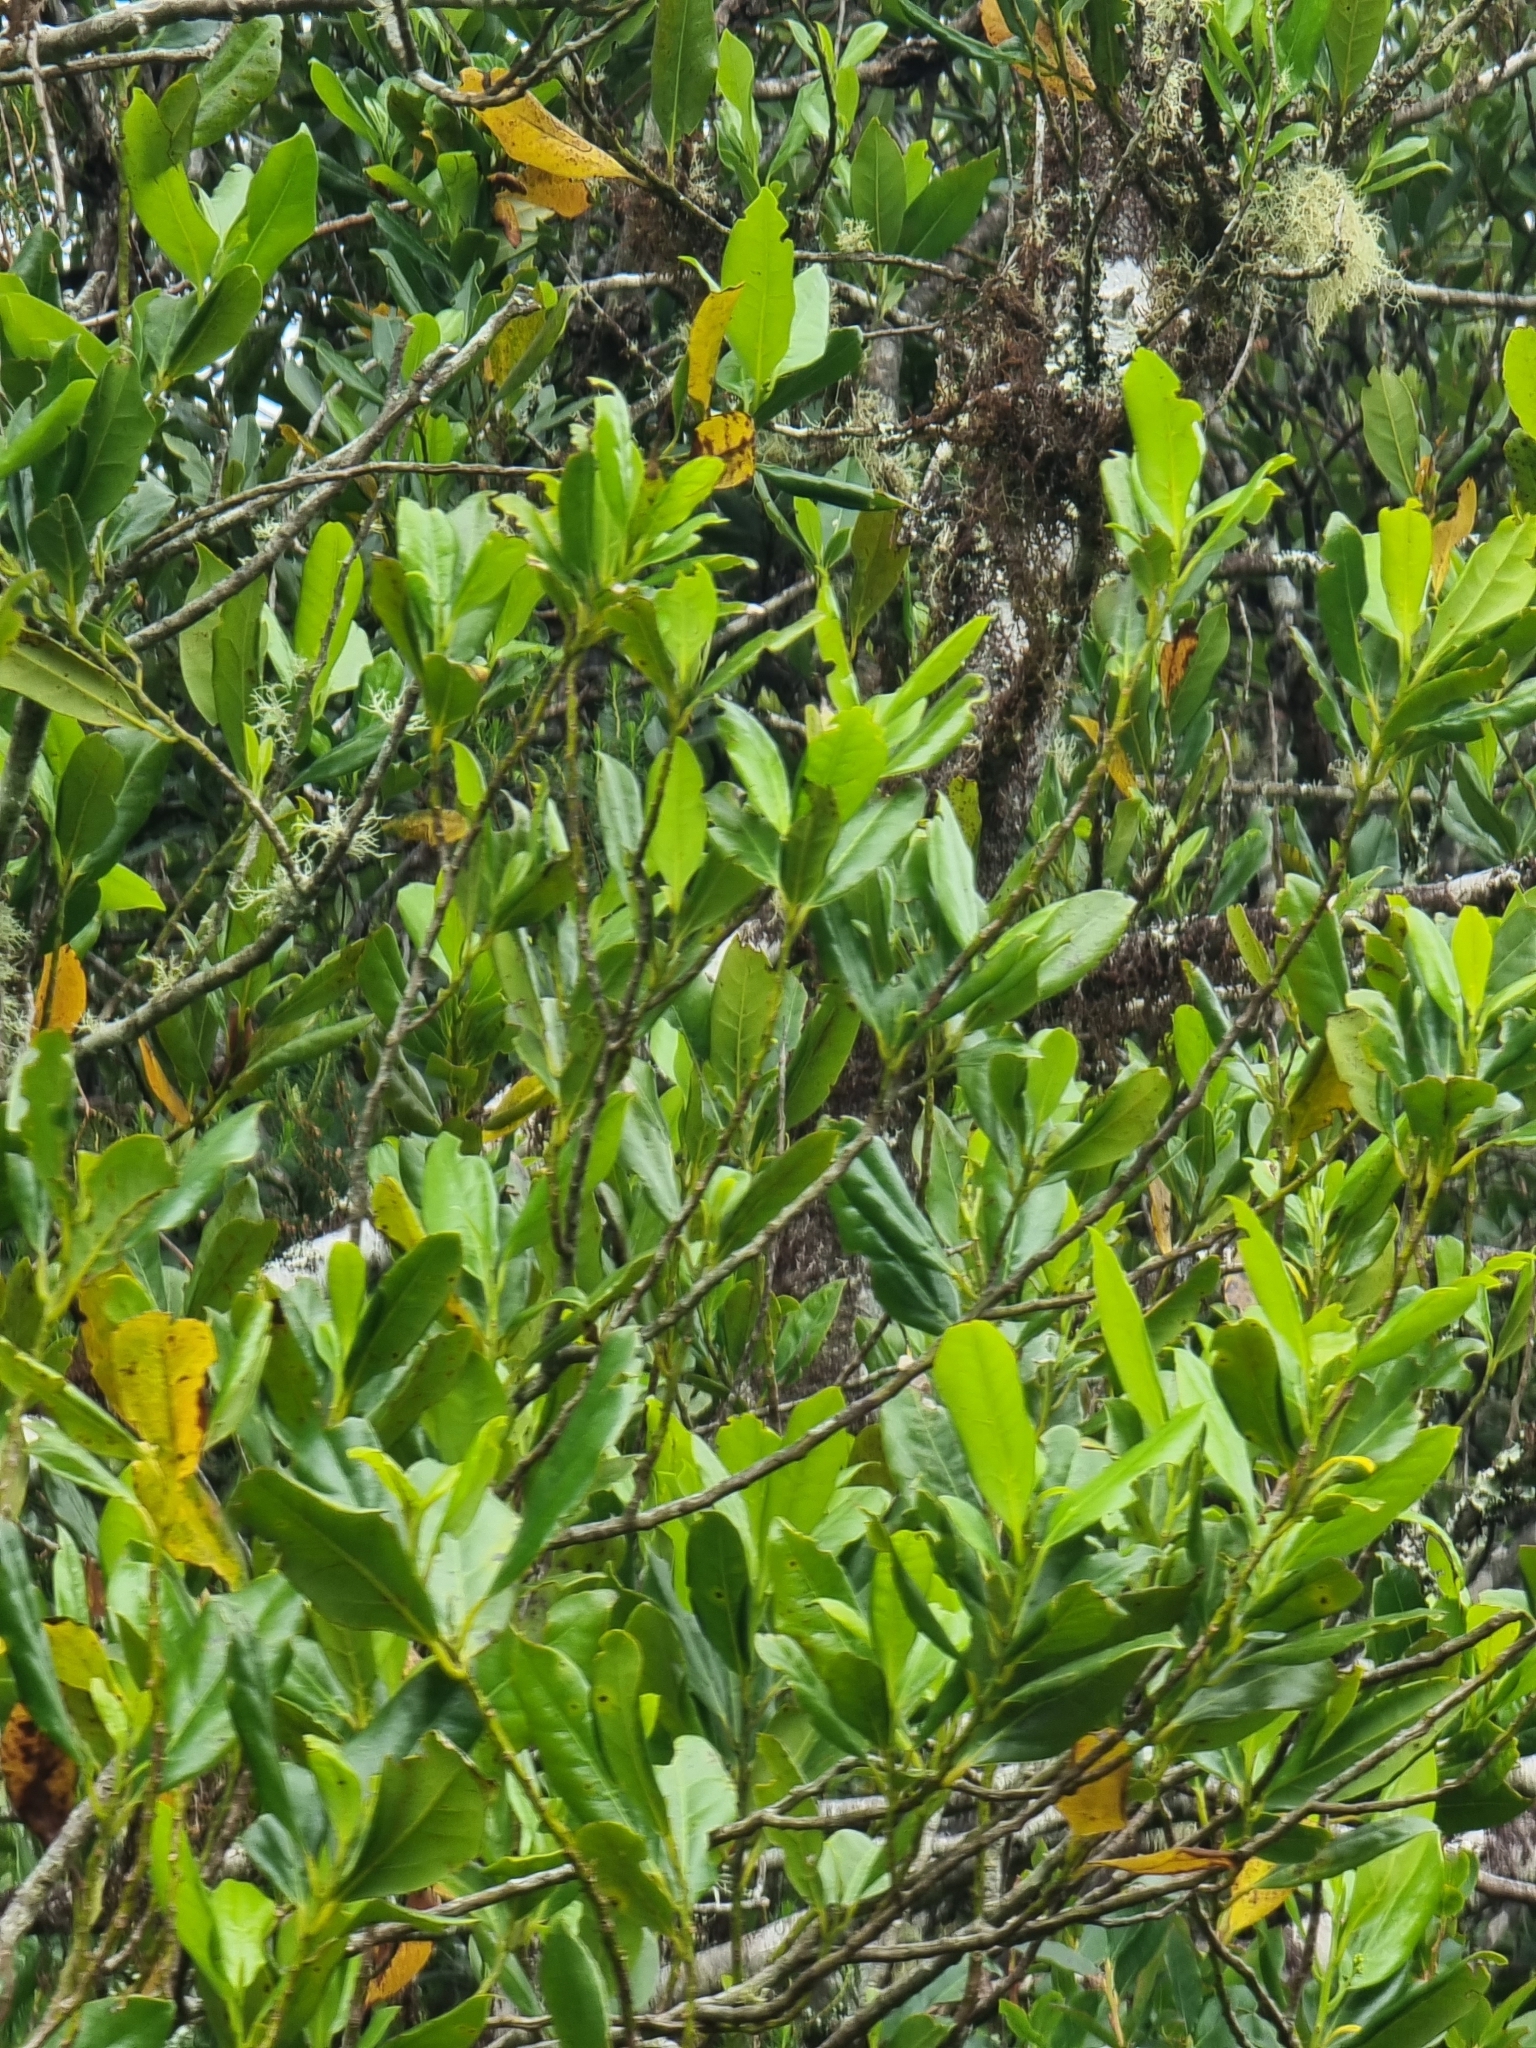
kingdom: Plantae
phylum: Tracheophyta
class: Magnoliopsida
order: Laurales
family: Lauraceae
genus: Mespilodaphne
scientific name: Mespilodaphne foetens
